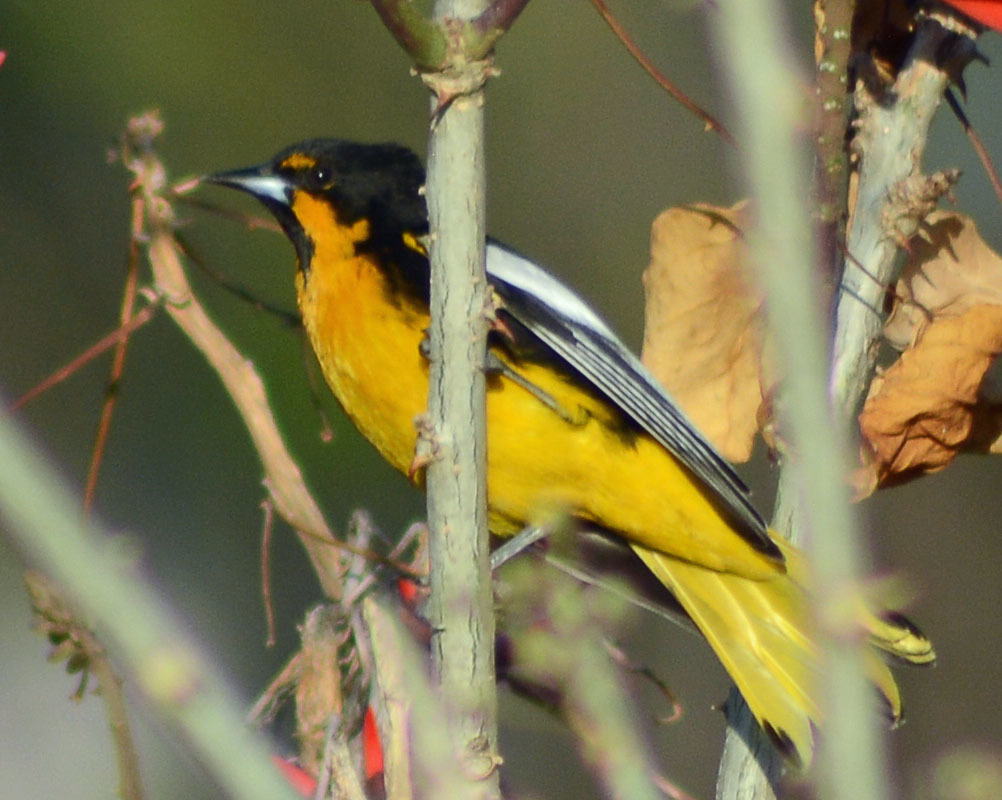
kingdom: Animalia
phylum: Chordata
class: Aves
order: Passeriformes
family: Icteridae
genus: Icterus
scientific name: Icterus abeillei
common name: Black-backed oriole
